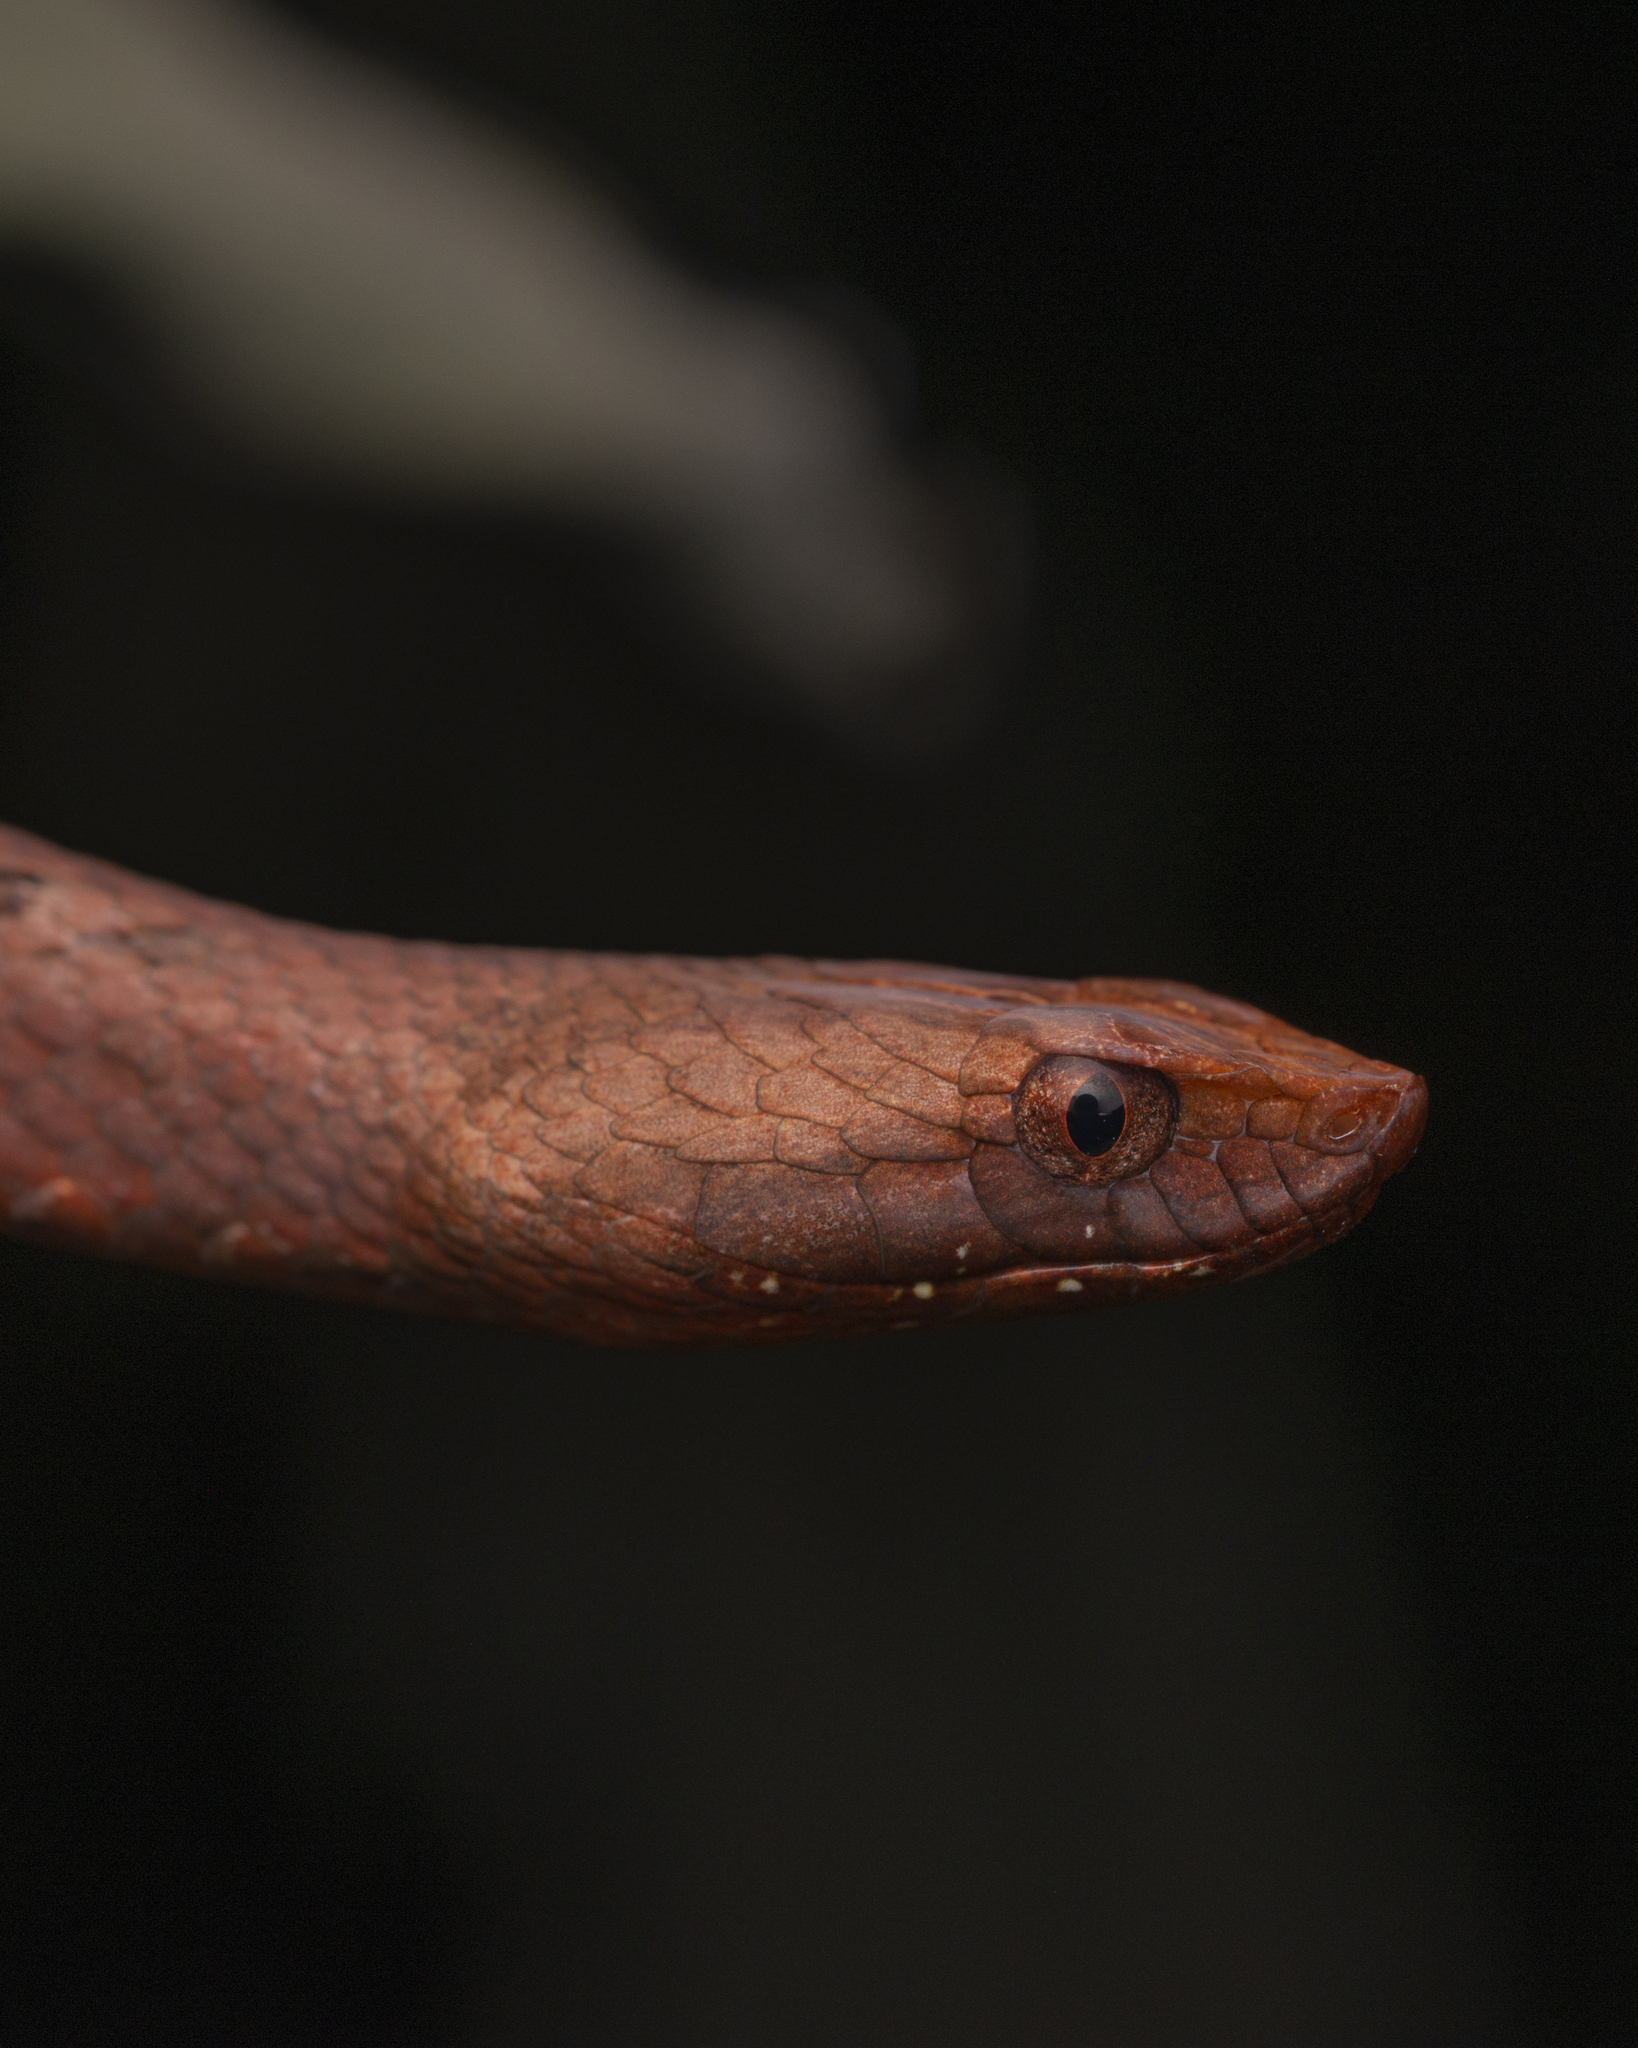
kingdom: Animalia
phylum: Chordata
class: Squamata
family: Pseudaspididae
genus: Psammodynastes
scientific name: Psammodynastes pulverulentus
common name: Common mock viper
